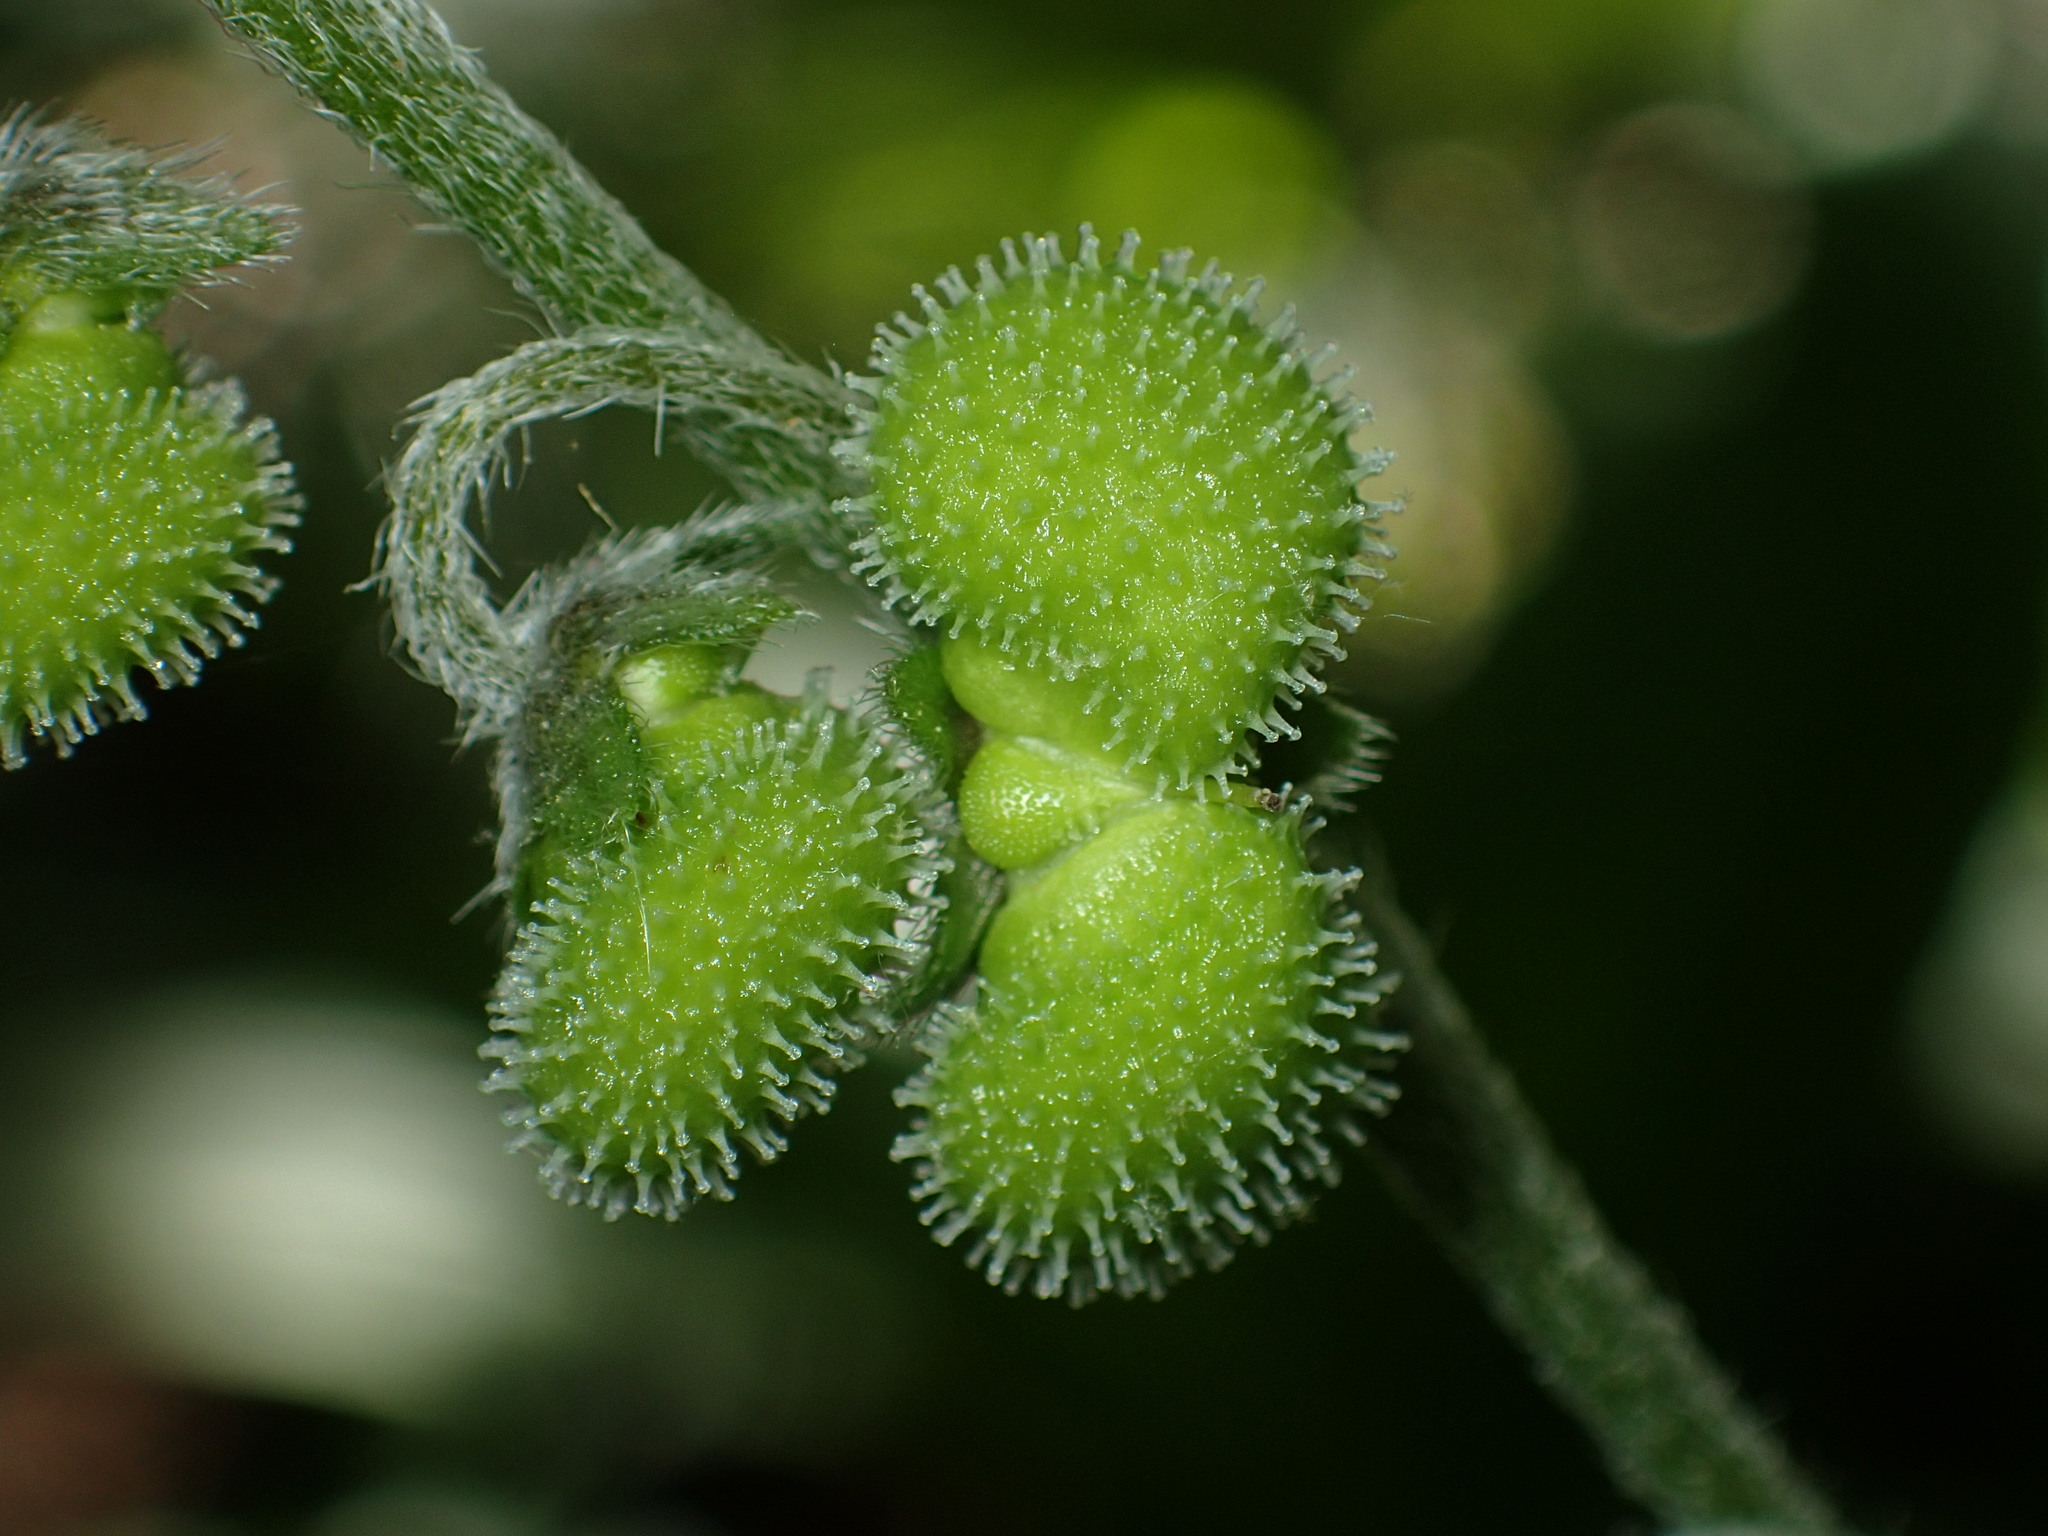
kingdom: Plantae
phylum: Tracheophyta
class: Magnoliopsida
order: Boraginales
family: Boraginaceae
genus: Andersonglossum
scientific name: Andersonglossum virginianum
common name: Wild comfrey
